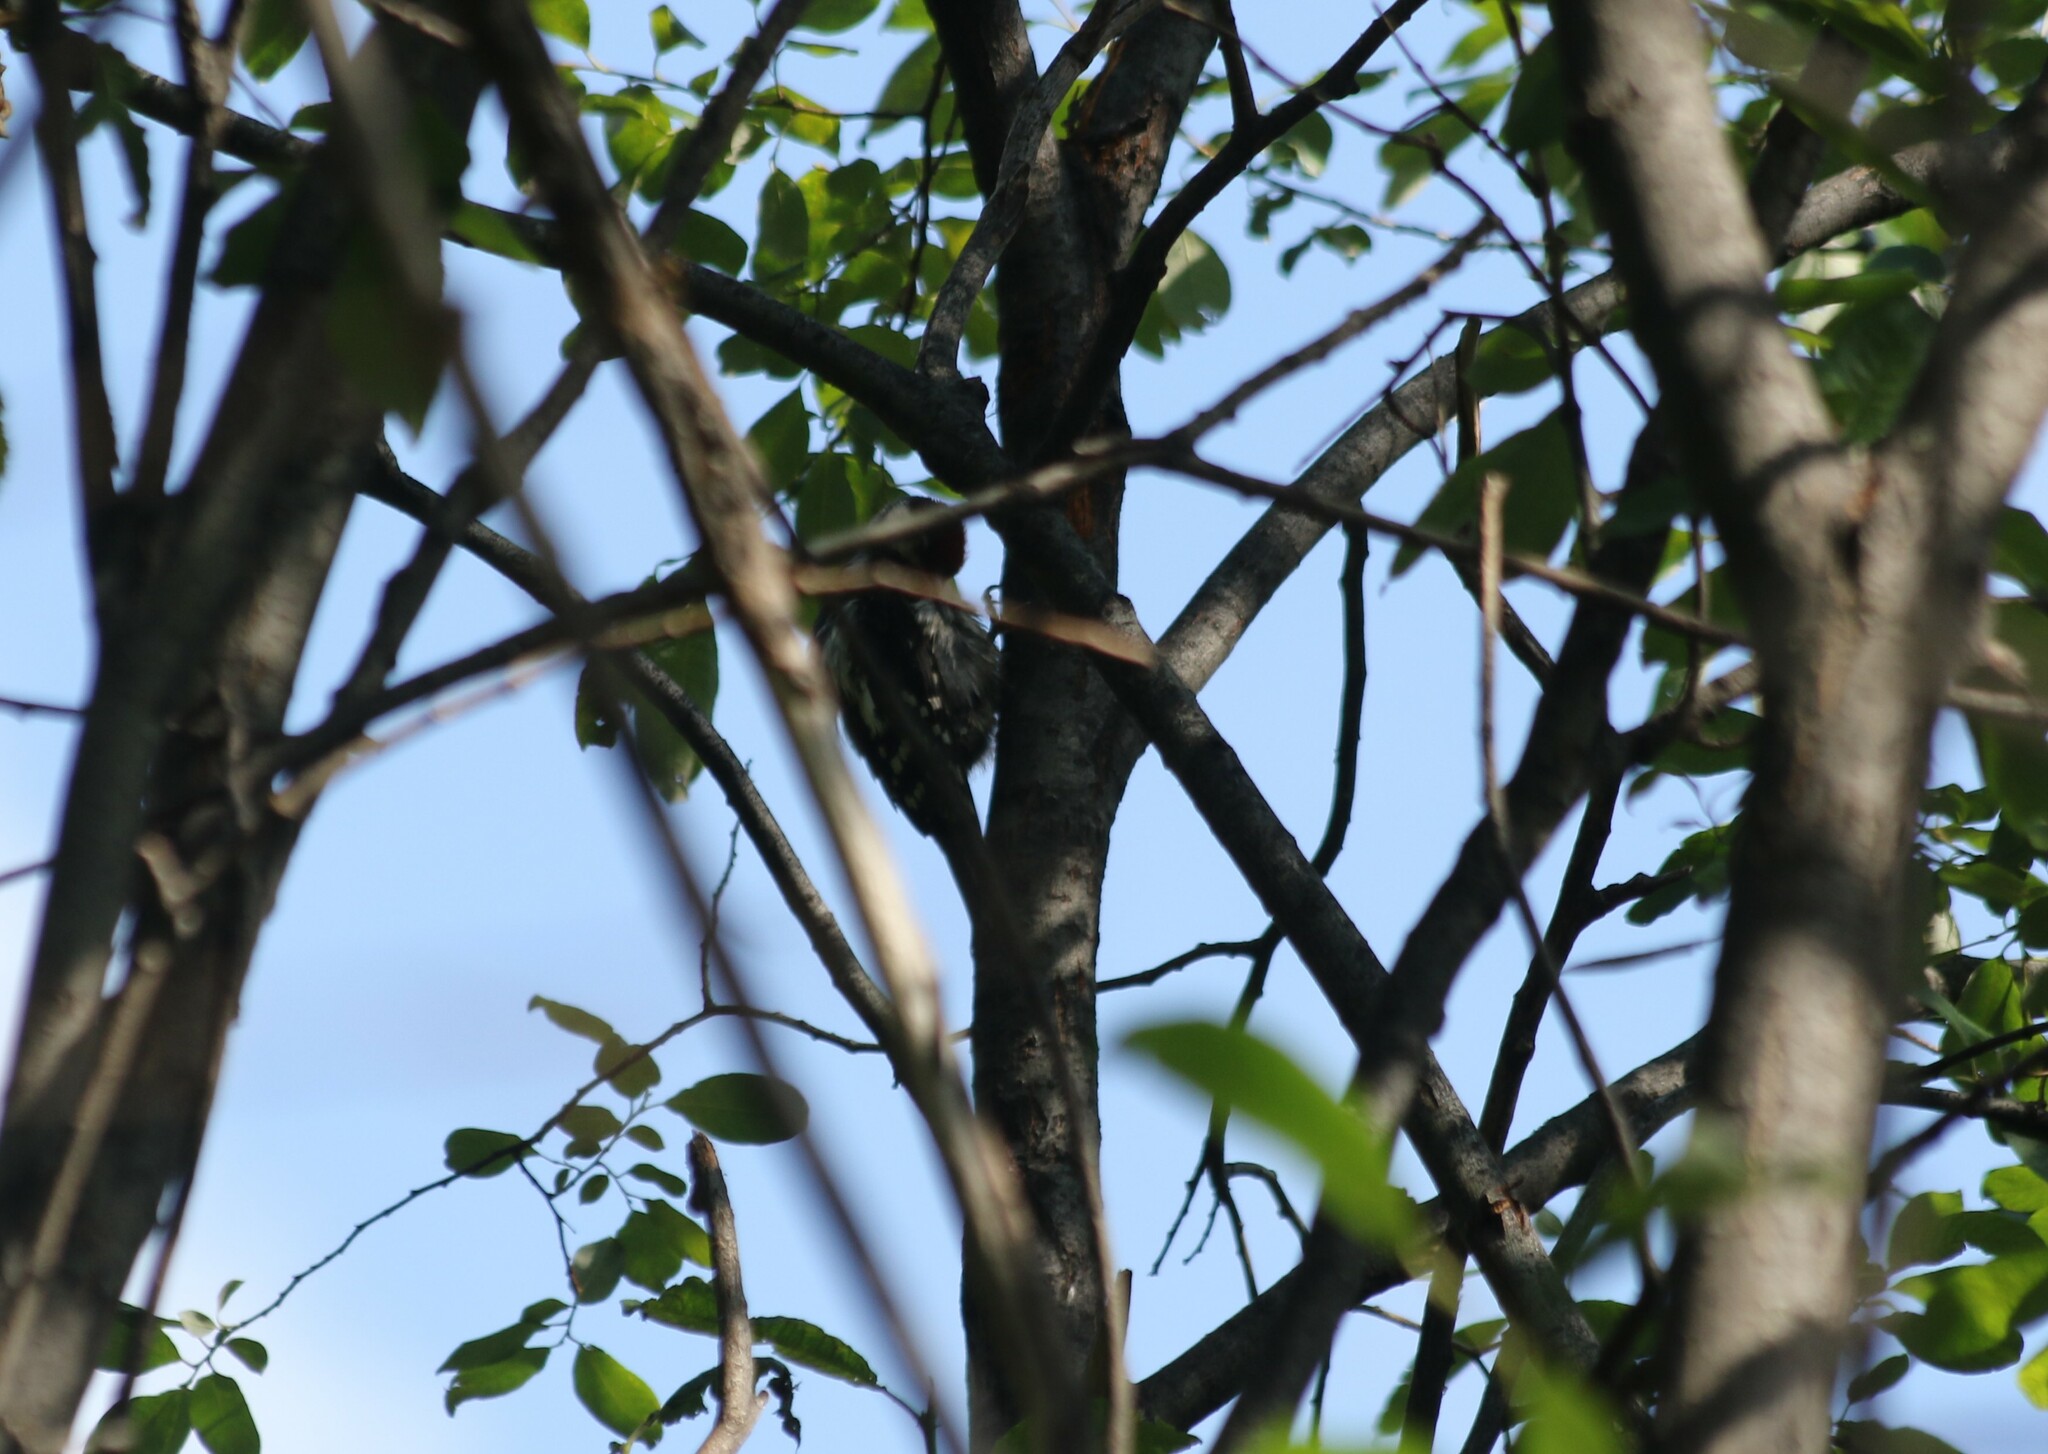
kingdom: Animalia
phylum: Chordata
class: Aves
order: Piciformes
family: Picidae
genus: Dendrocopos
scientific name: Dendrocopos major
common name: Great spotted woodpecker
